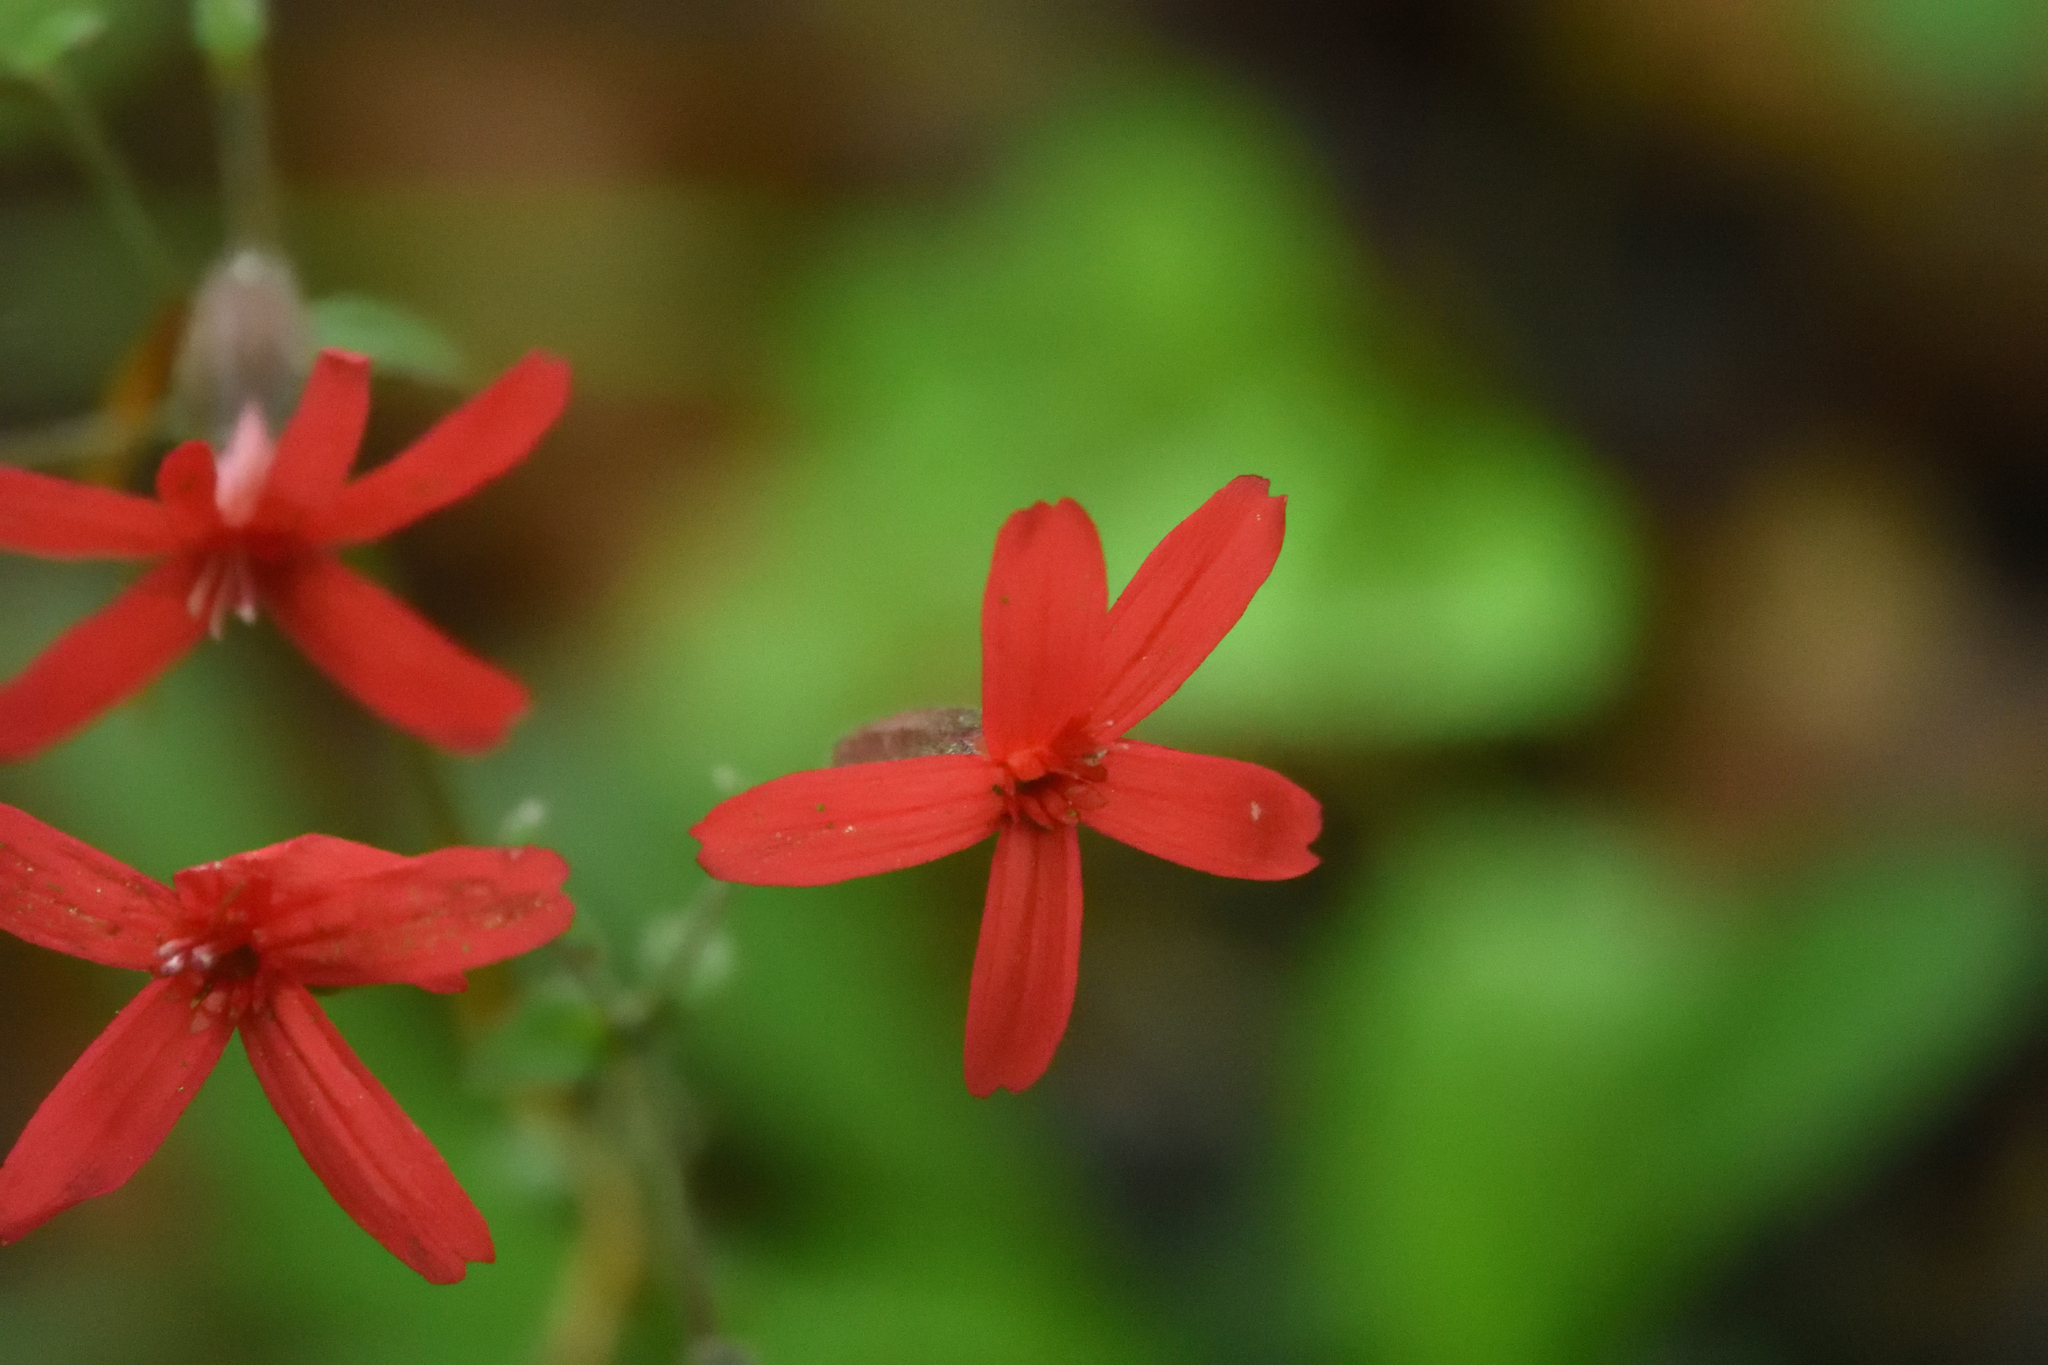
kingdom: Plantae
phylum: Tracheophyta
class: Magnoliopsida
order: Caryophyllales
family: Caryophyllaceae
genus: Silene
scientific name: Silene virginica
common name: Fire-pink
